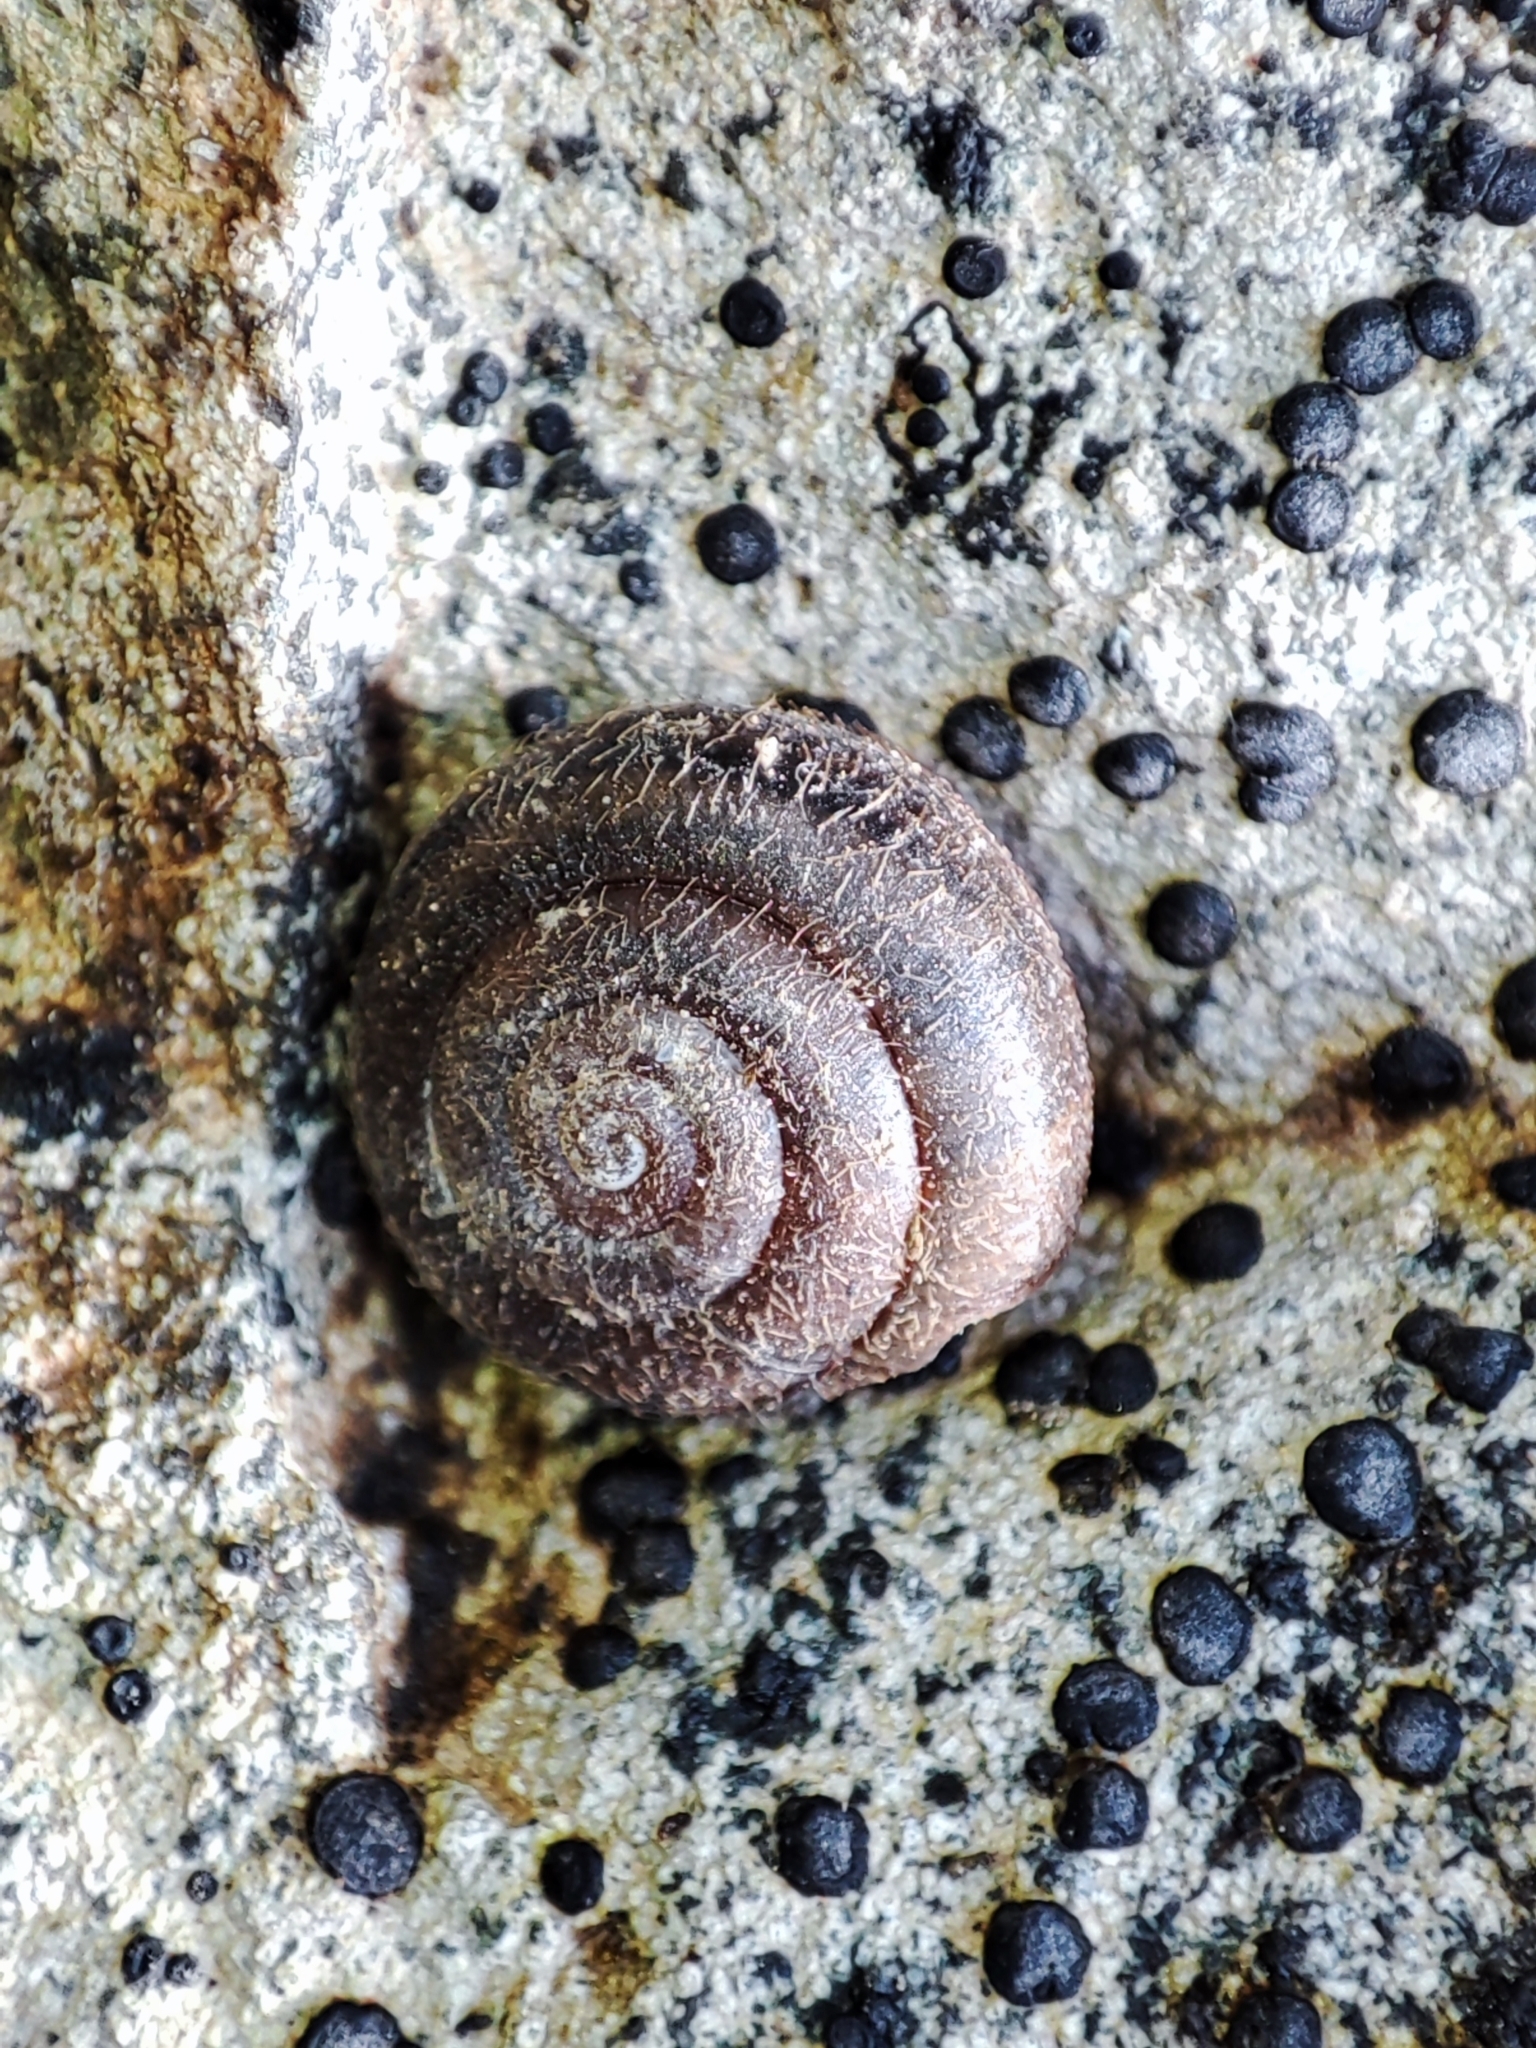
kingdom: Animalia
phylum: Mollusca
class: Gastropoda
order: Stylommatophora
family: Helicidae
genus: Isognomostoma
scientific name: Isognomostoma isognomostomos
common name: Mask snail
